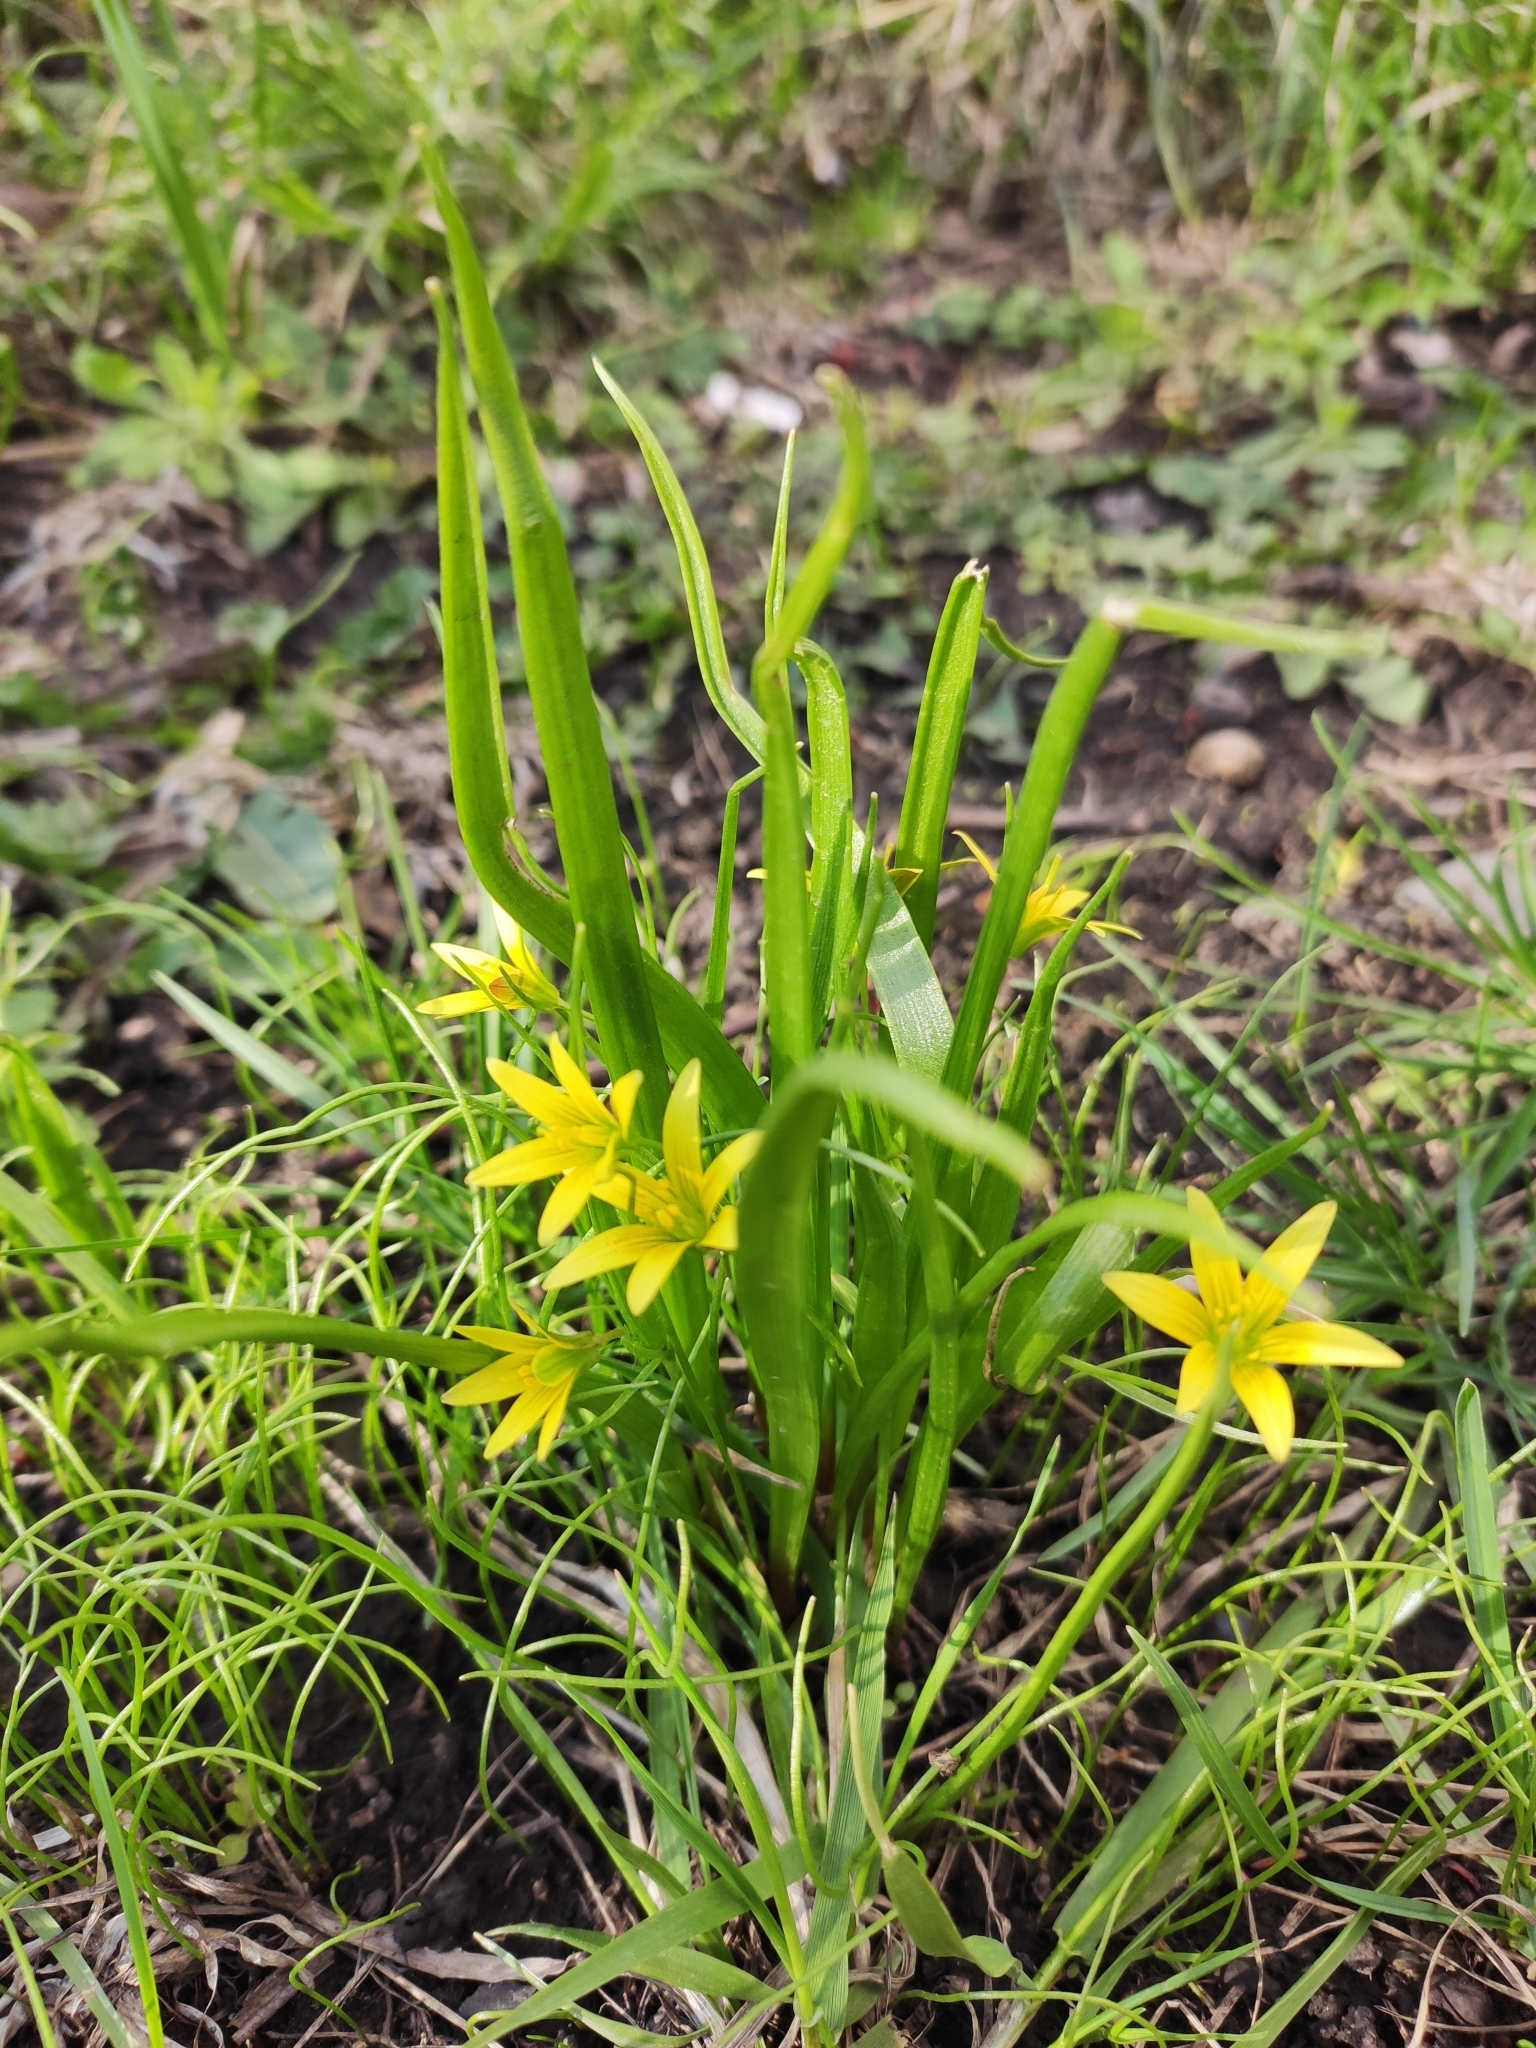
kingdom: Plantae
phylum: Tracheophyta
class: Liliopsida
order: Liliales
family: Liliaceae
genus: Gagea
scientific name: Gagea granulosa
